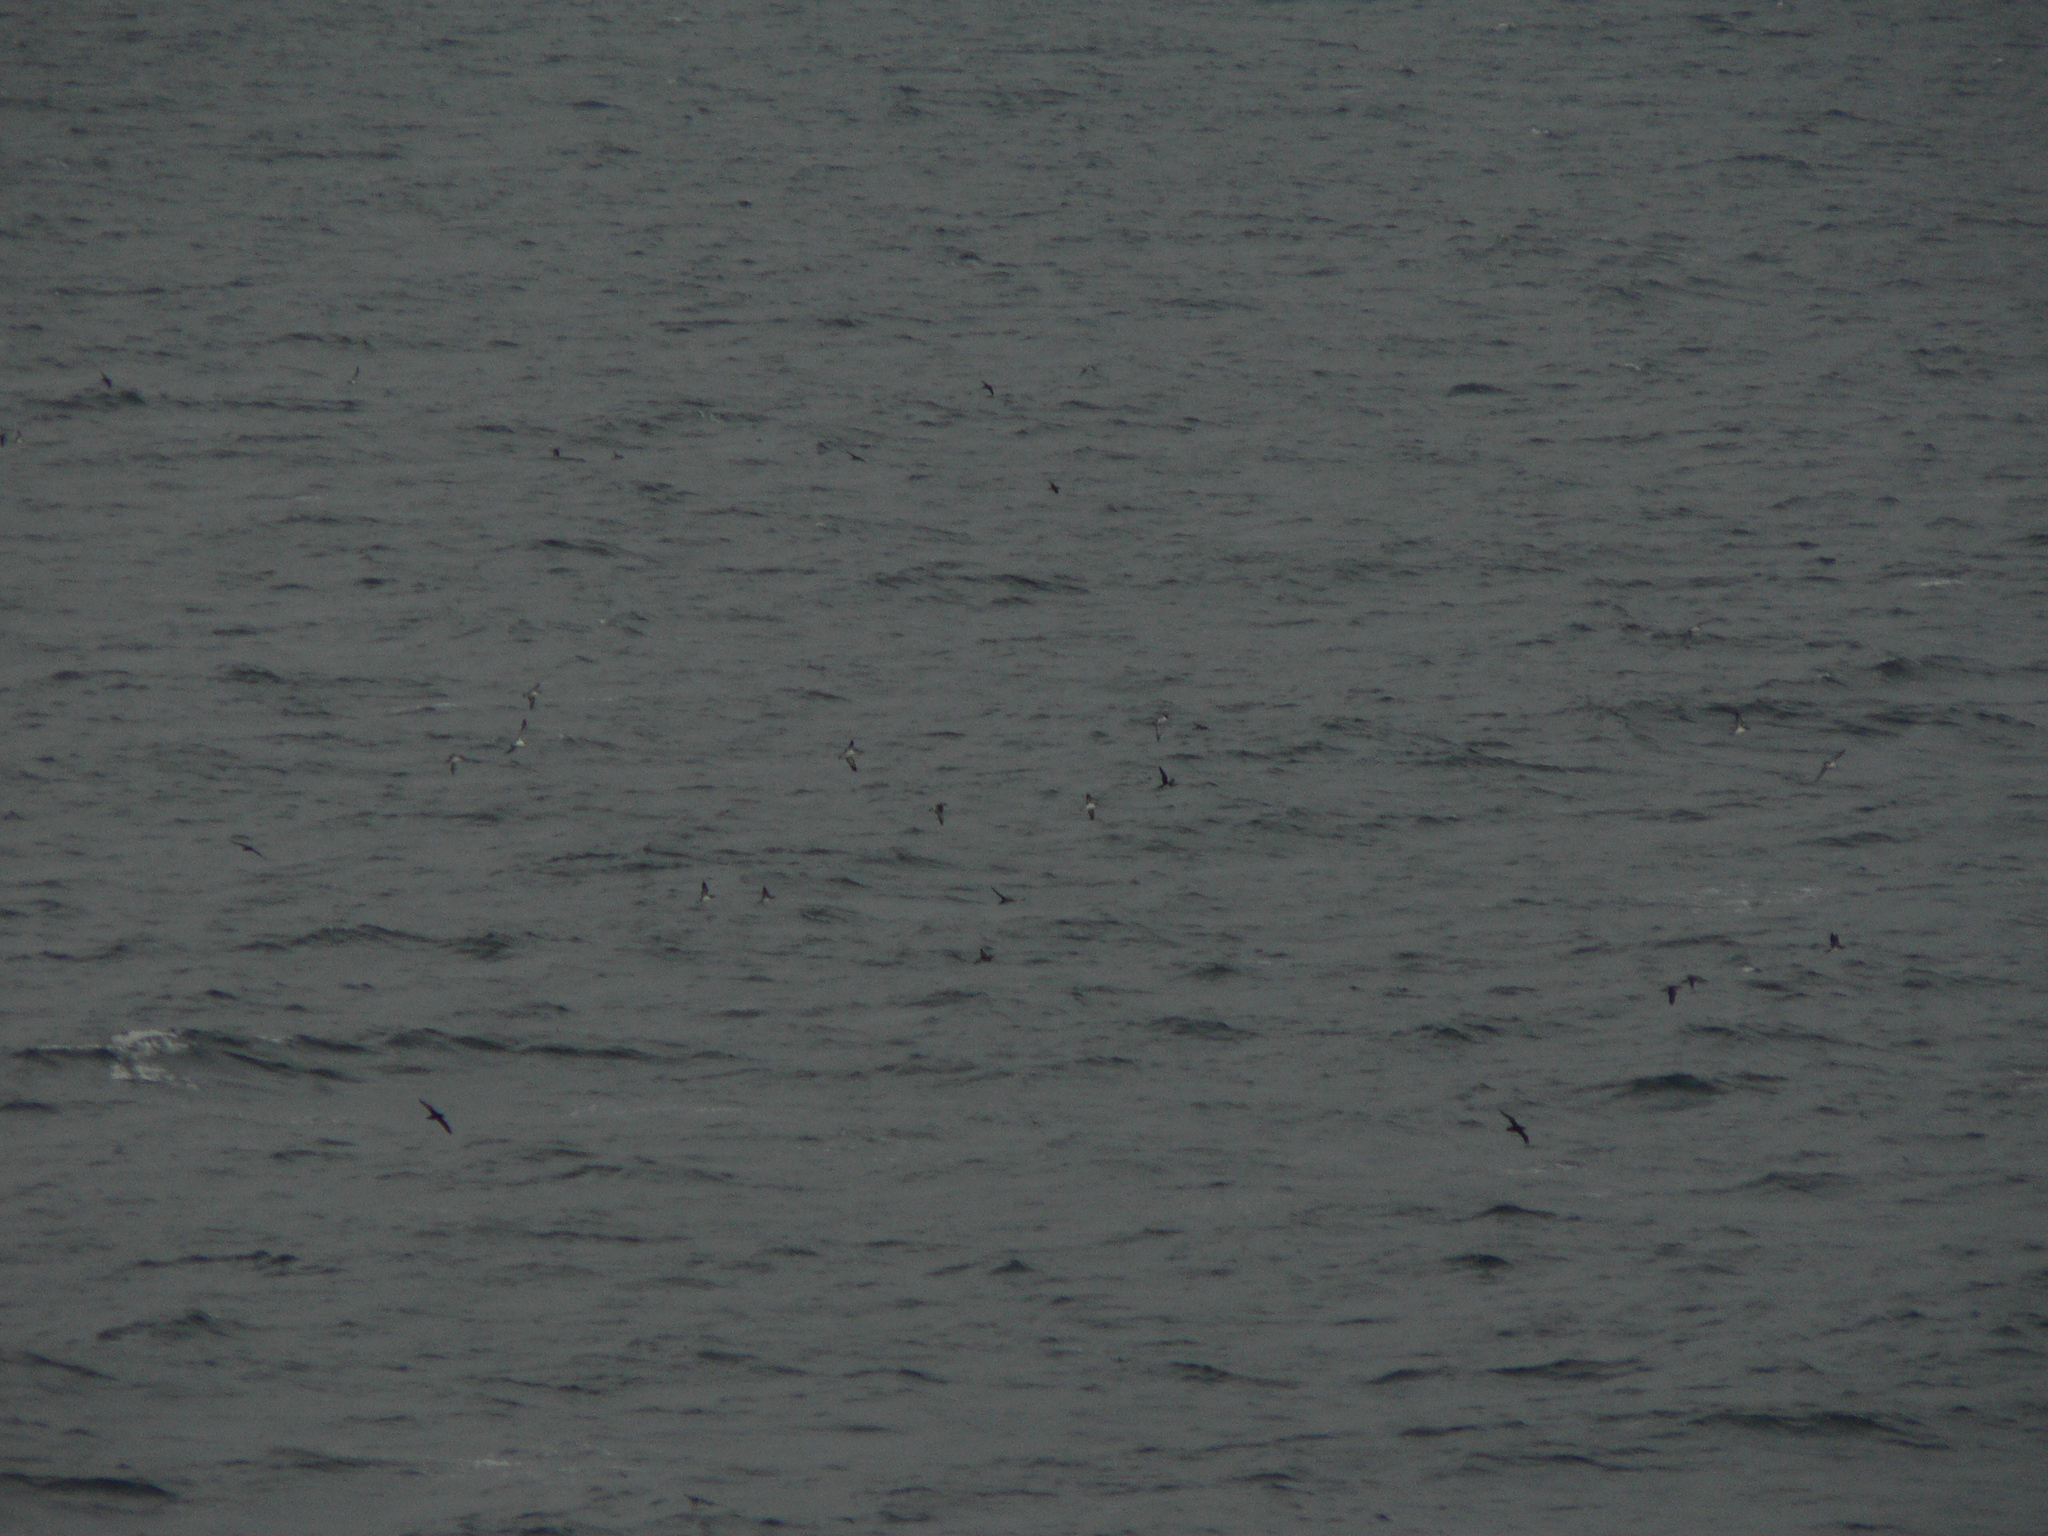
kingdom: Animalia
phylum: Chordata
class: Aves
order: Procellariiformes
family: Procellariidae
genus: Puffinus
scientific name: Puffinus puffinus
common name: Manx shearwater
